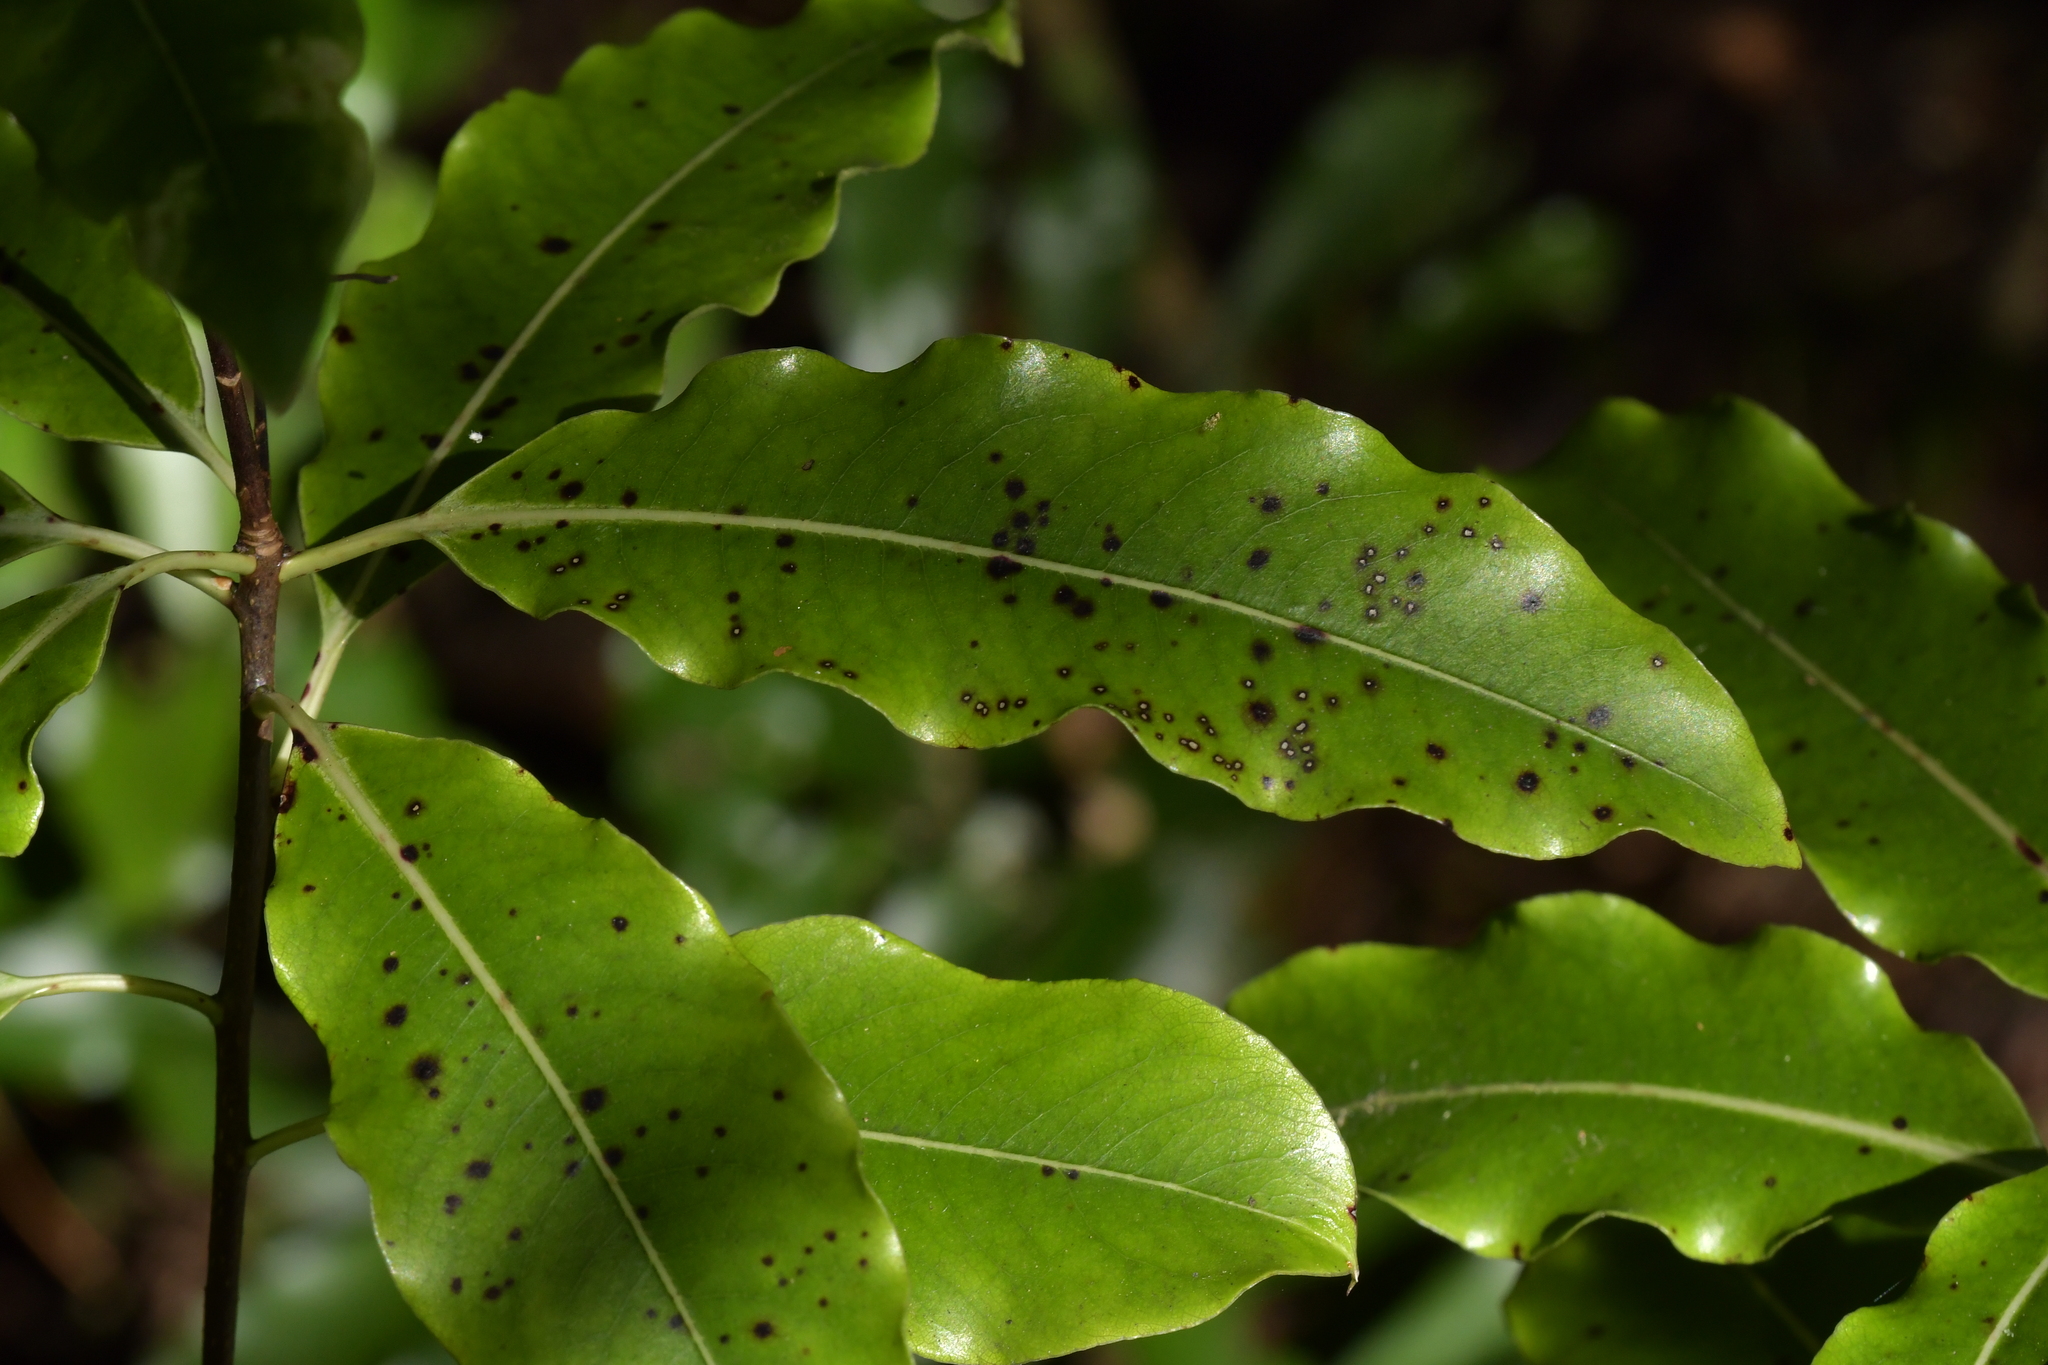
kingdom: Plantae
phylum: Tracheophyta
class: Magnoliopsida
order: Apiales
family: Pittosporaceae
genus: Pittosporum
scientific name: Pittosporum eugenioides
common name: Lemonwood
